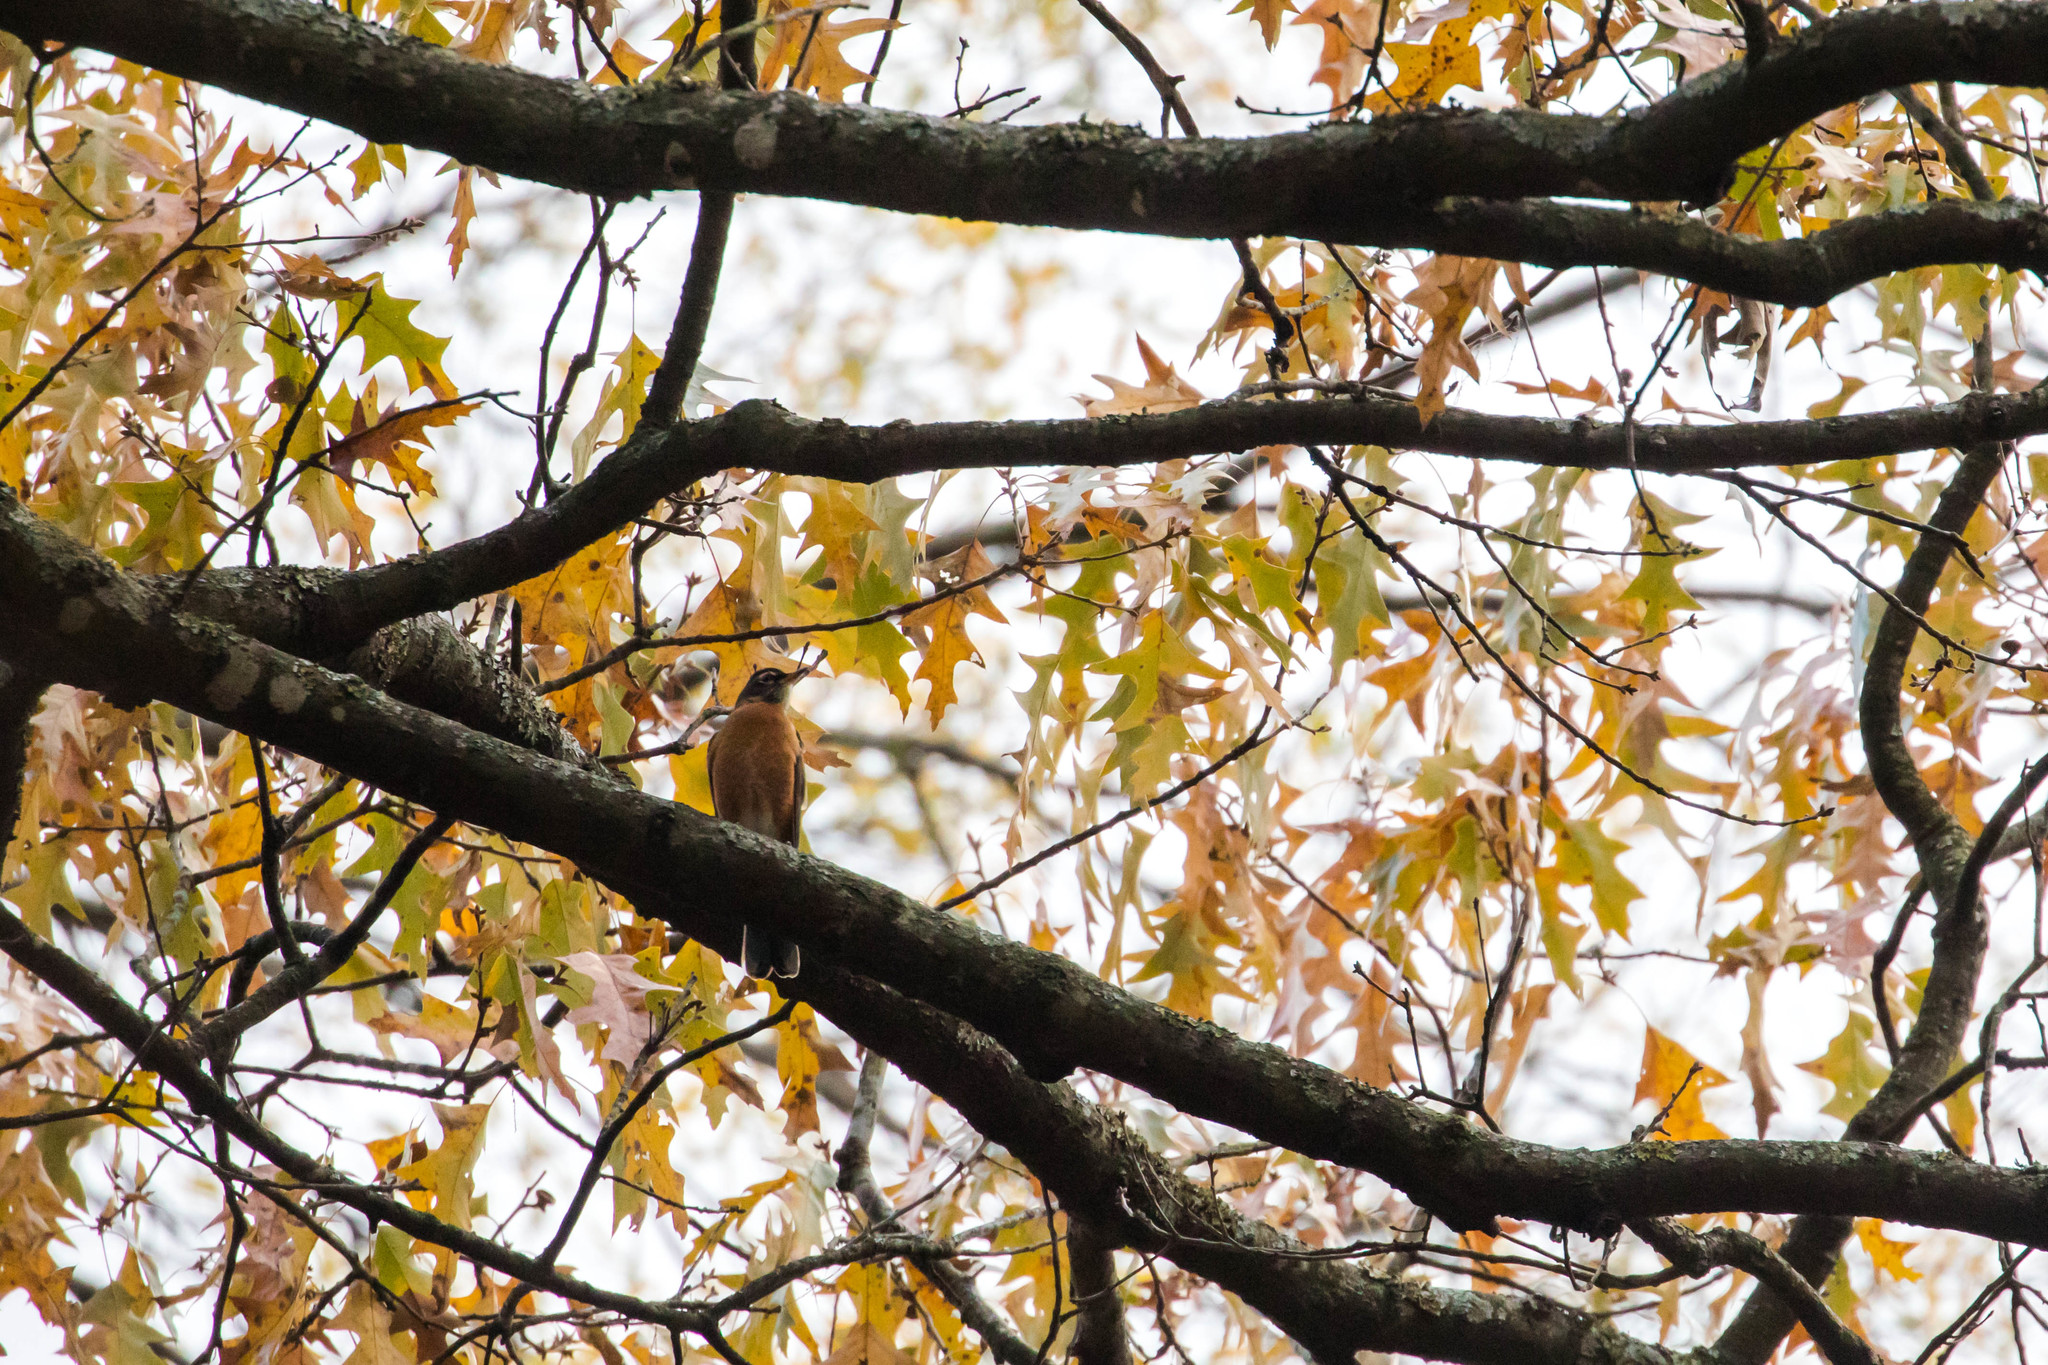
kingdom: Animalia
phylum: Chordata
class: Aves
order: Passeriformes
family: Turdidae
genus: Turdus
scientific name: Turdus migratorius
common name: American robin
